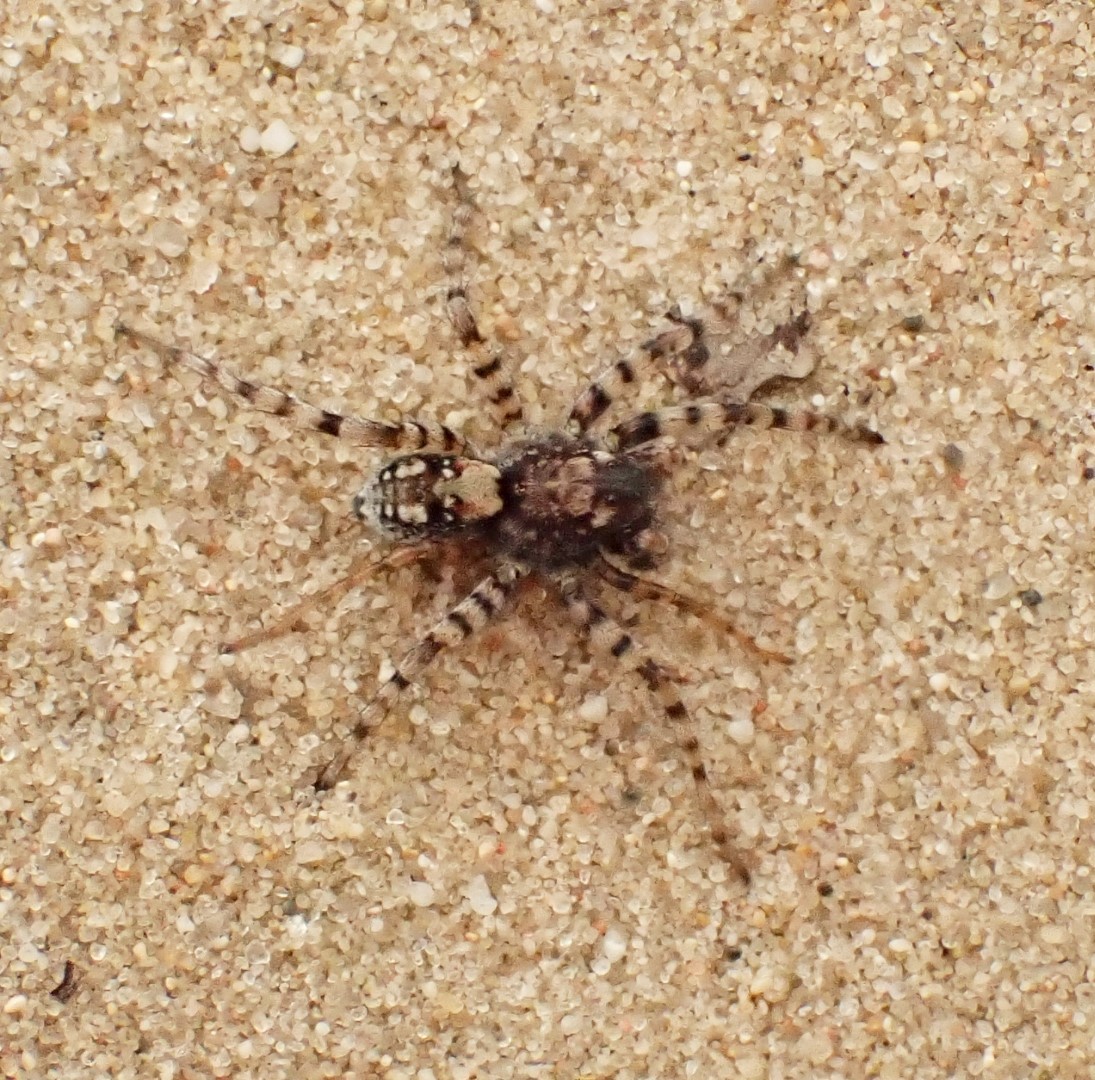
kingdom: Animalia
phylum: Arthropoda
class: Arachnida
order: Araneae
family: Lycosidae
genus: Arctosa
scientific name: Arctosa perita
